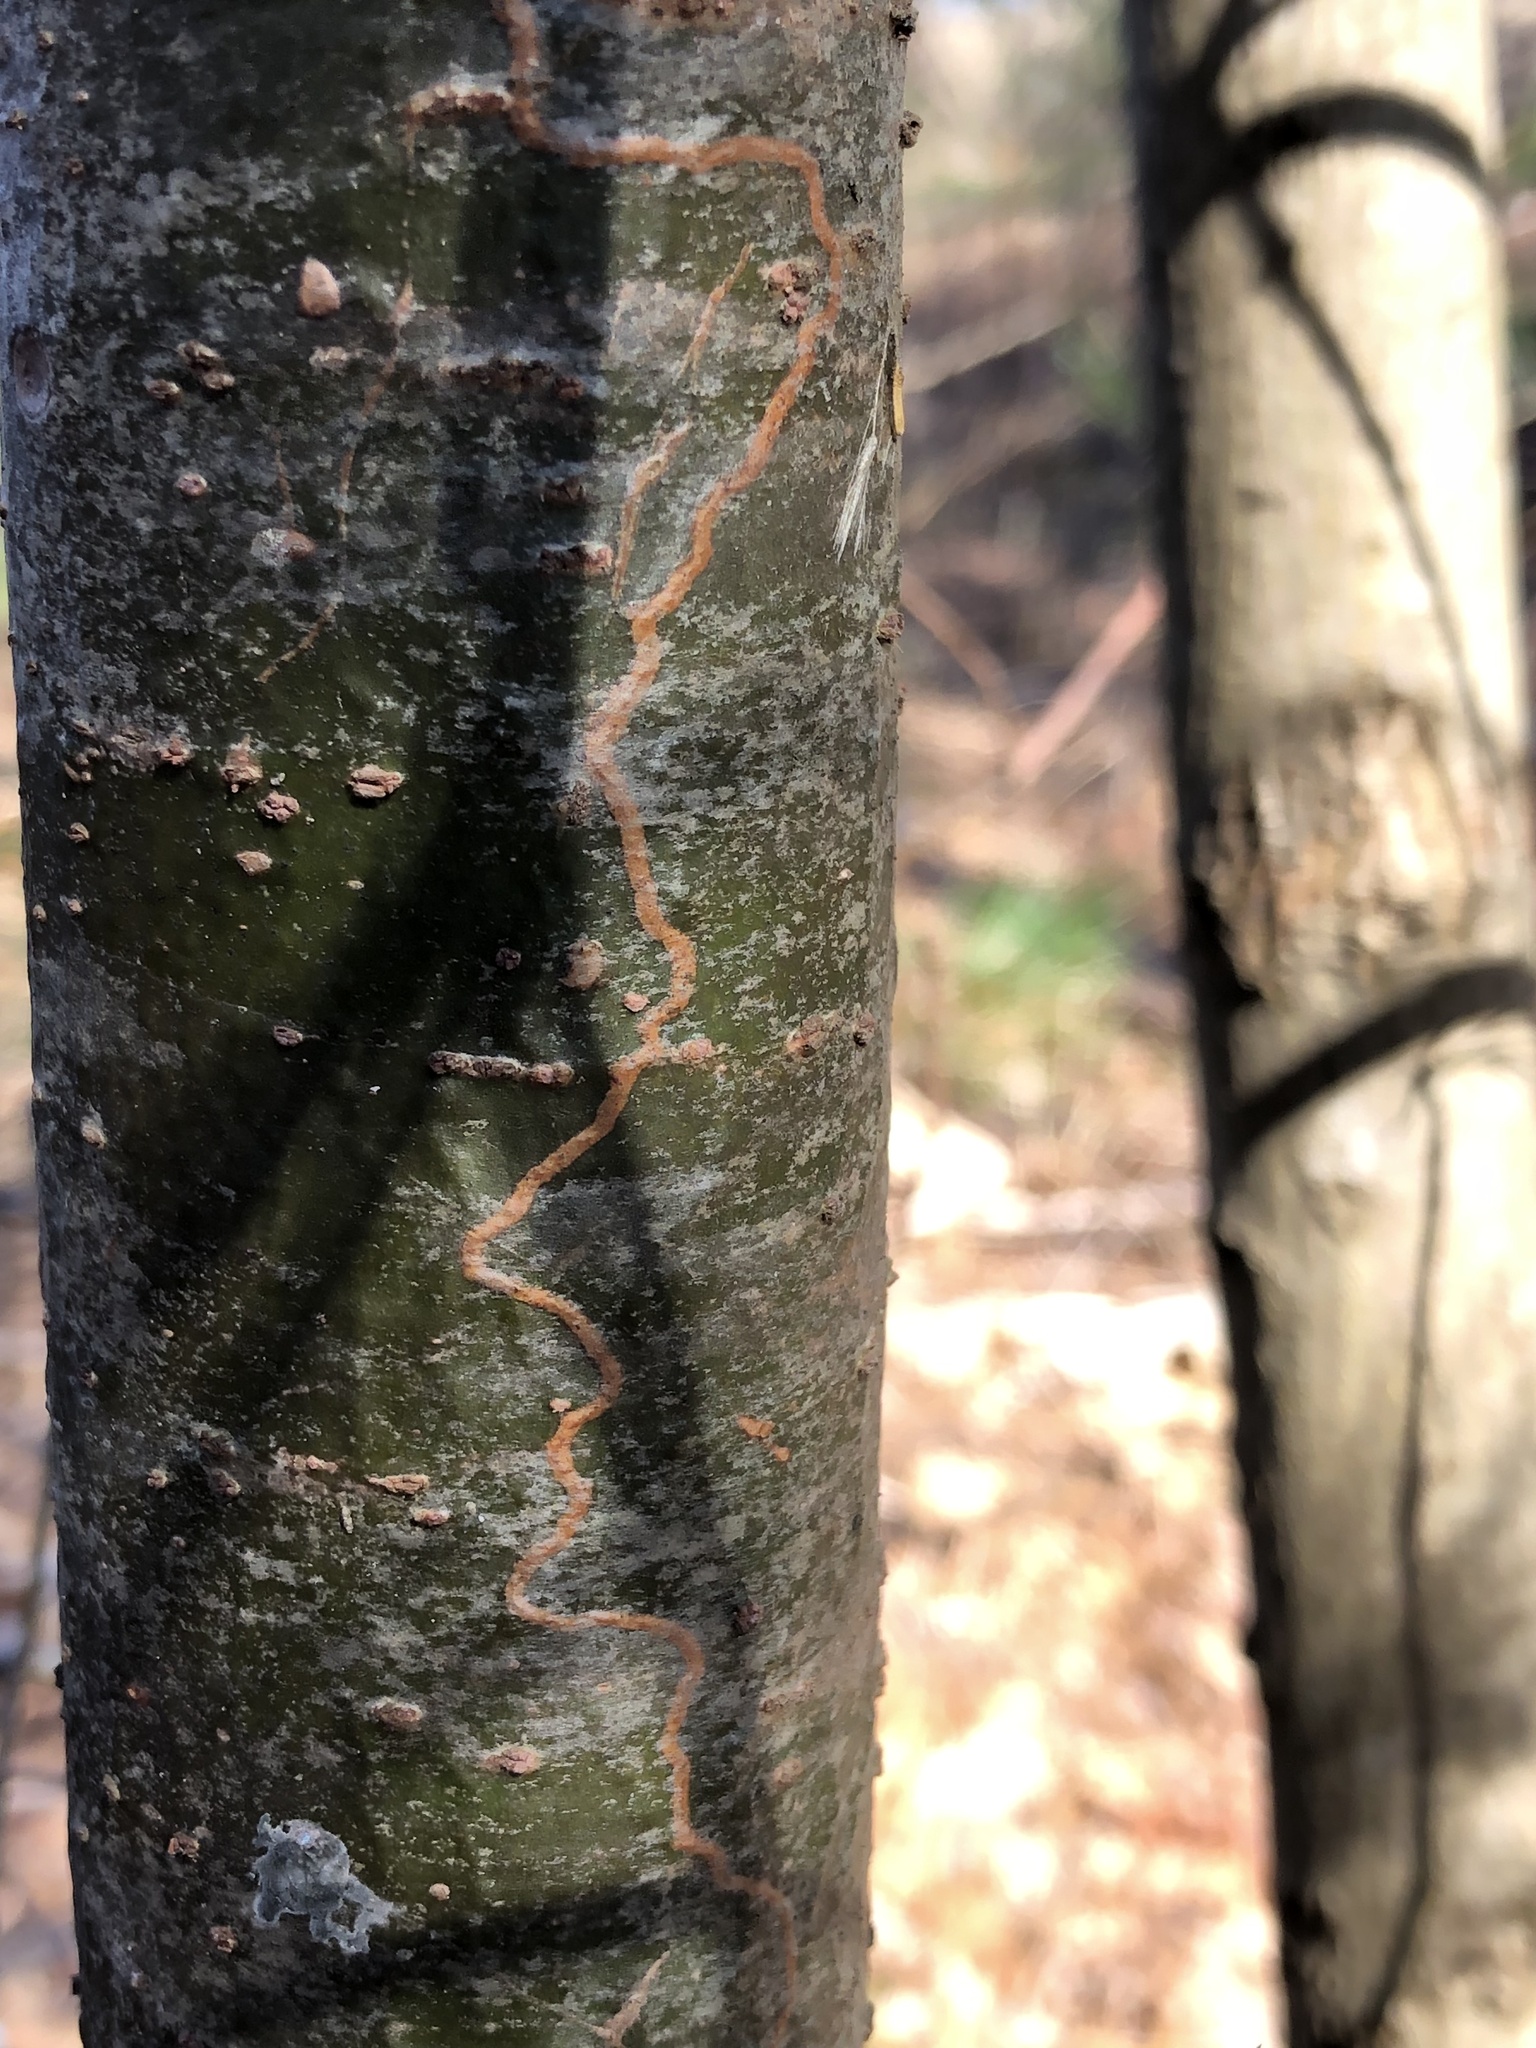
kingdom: Animalia
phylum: Arthropoda
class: Insecta
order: Lepidoptera
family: Gracillariidae
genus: Marmara
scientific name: Marmara fasciella
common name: White pine barkminer moth
